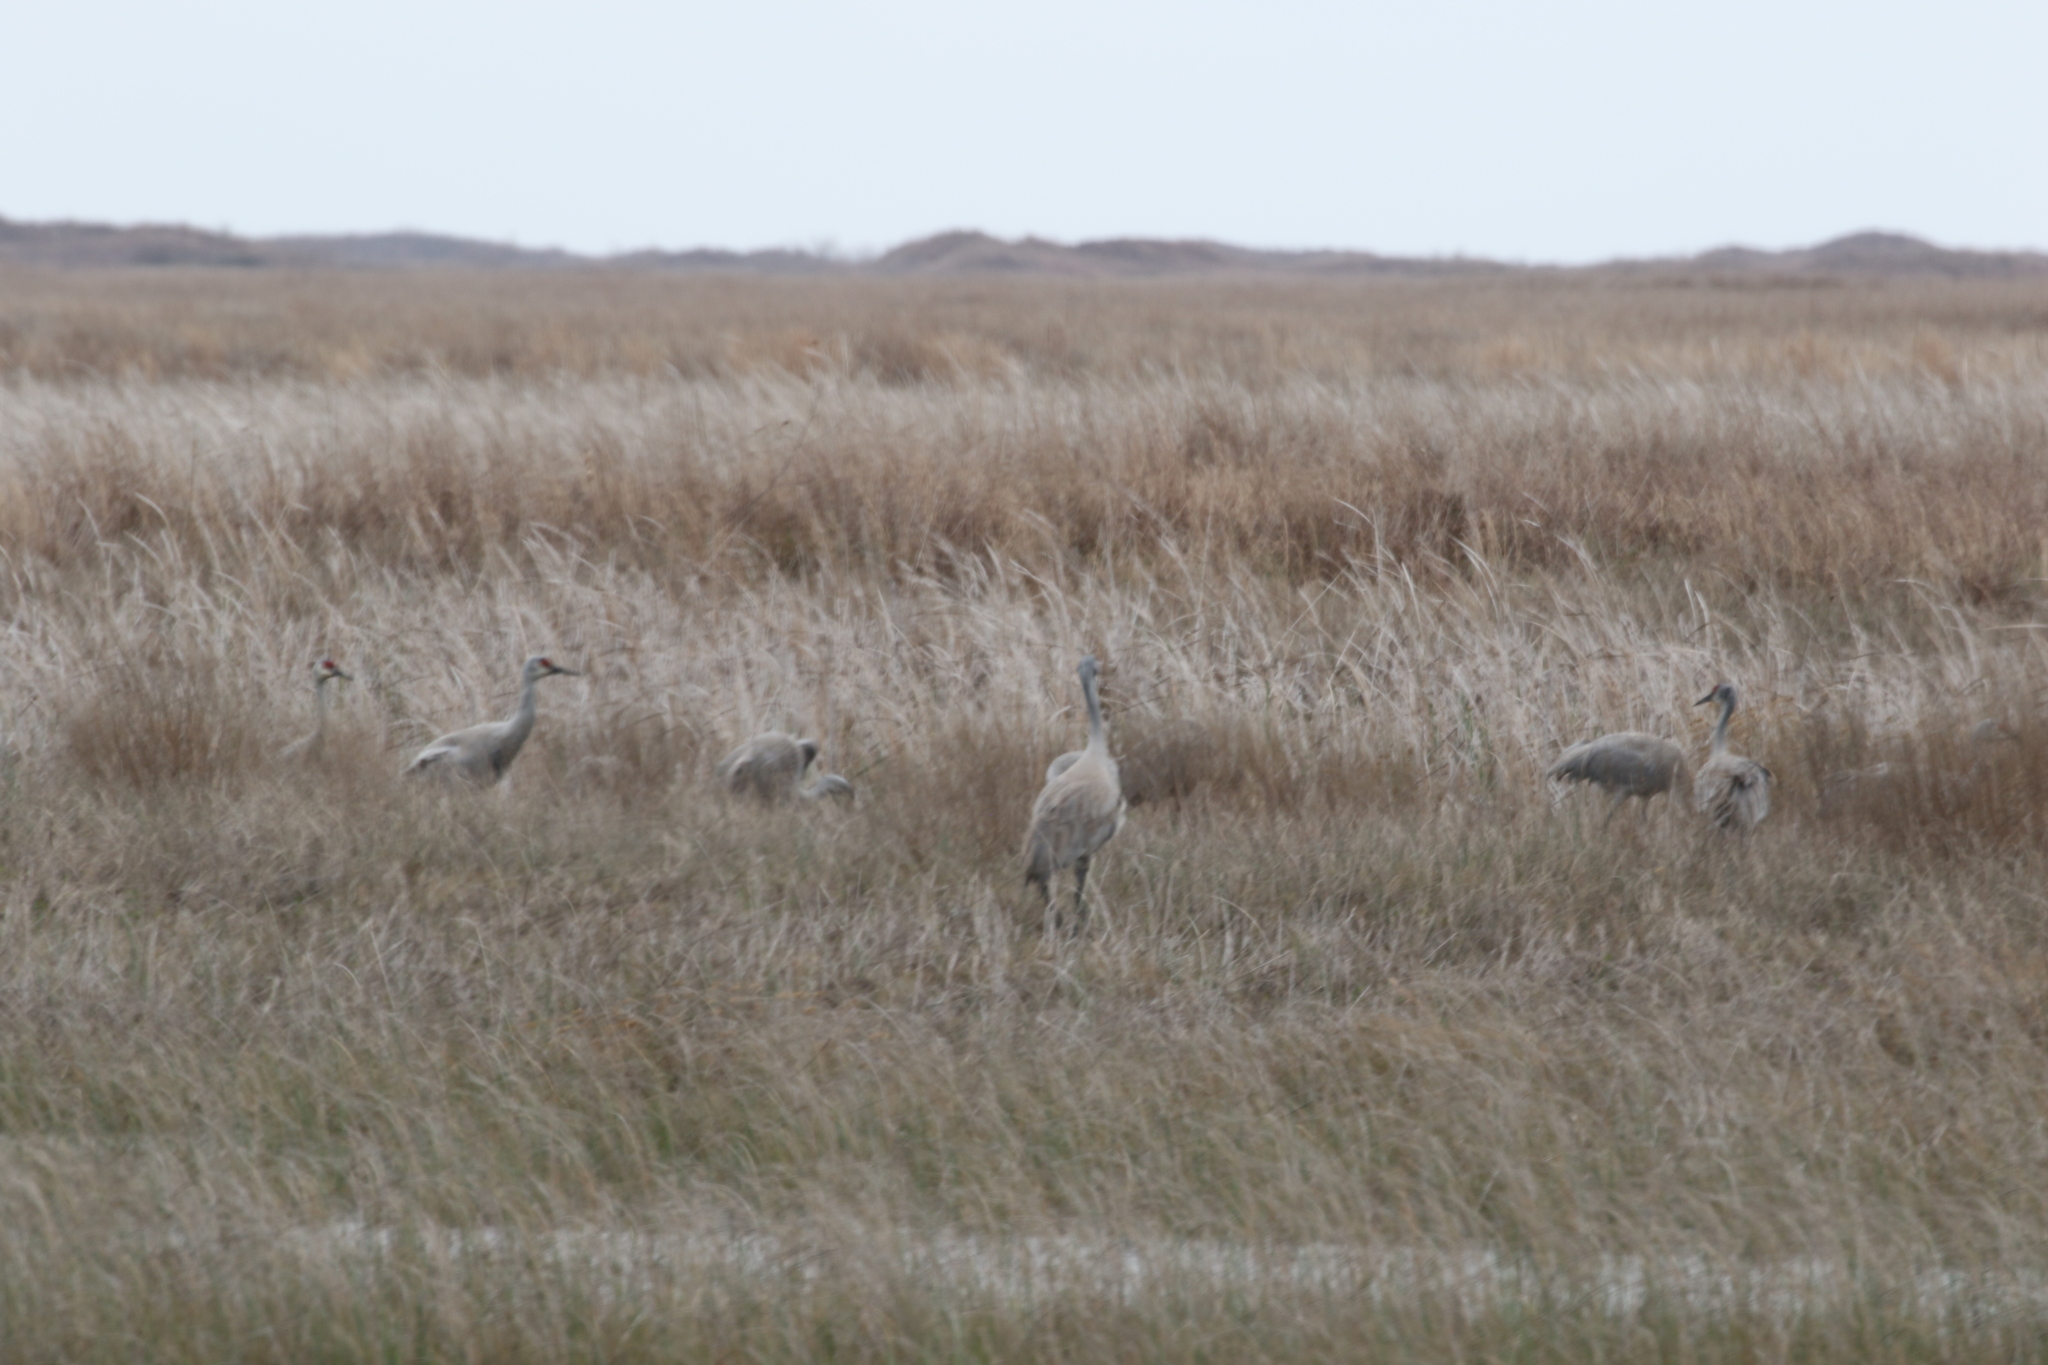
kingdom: Animalia
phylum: Chordata
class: Aves
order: Gruiformes
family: Gruidae
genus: Grus
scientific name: Grus canadensis
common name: Sandhill crane
